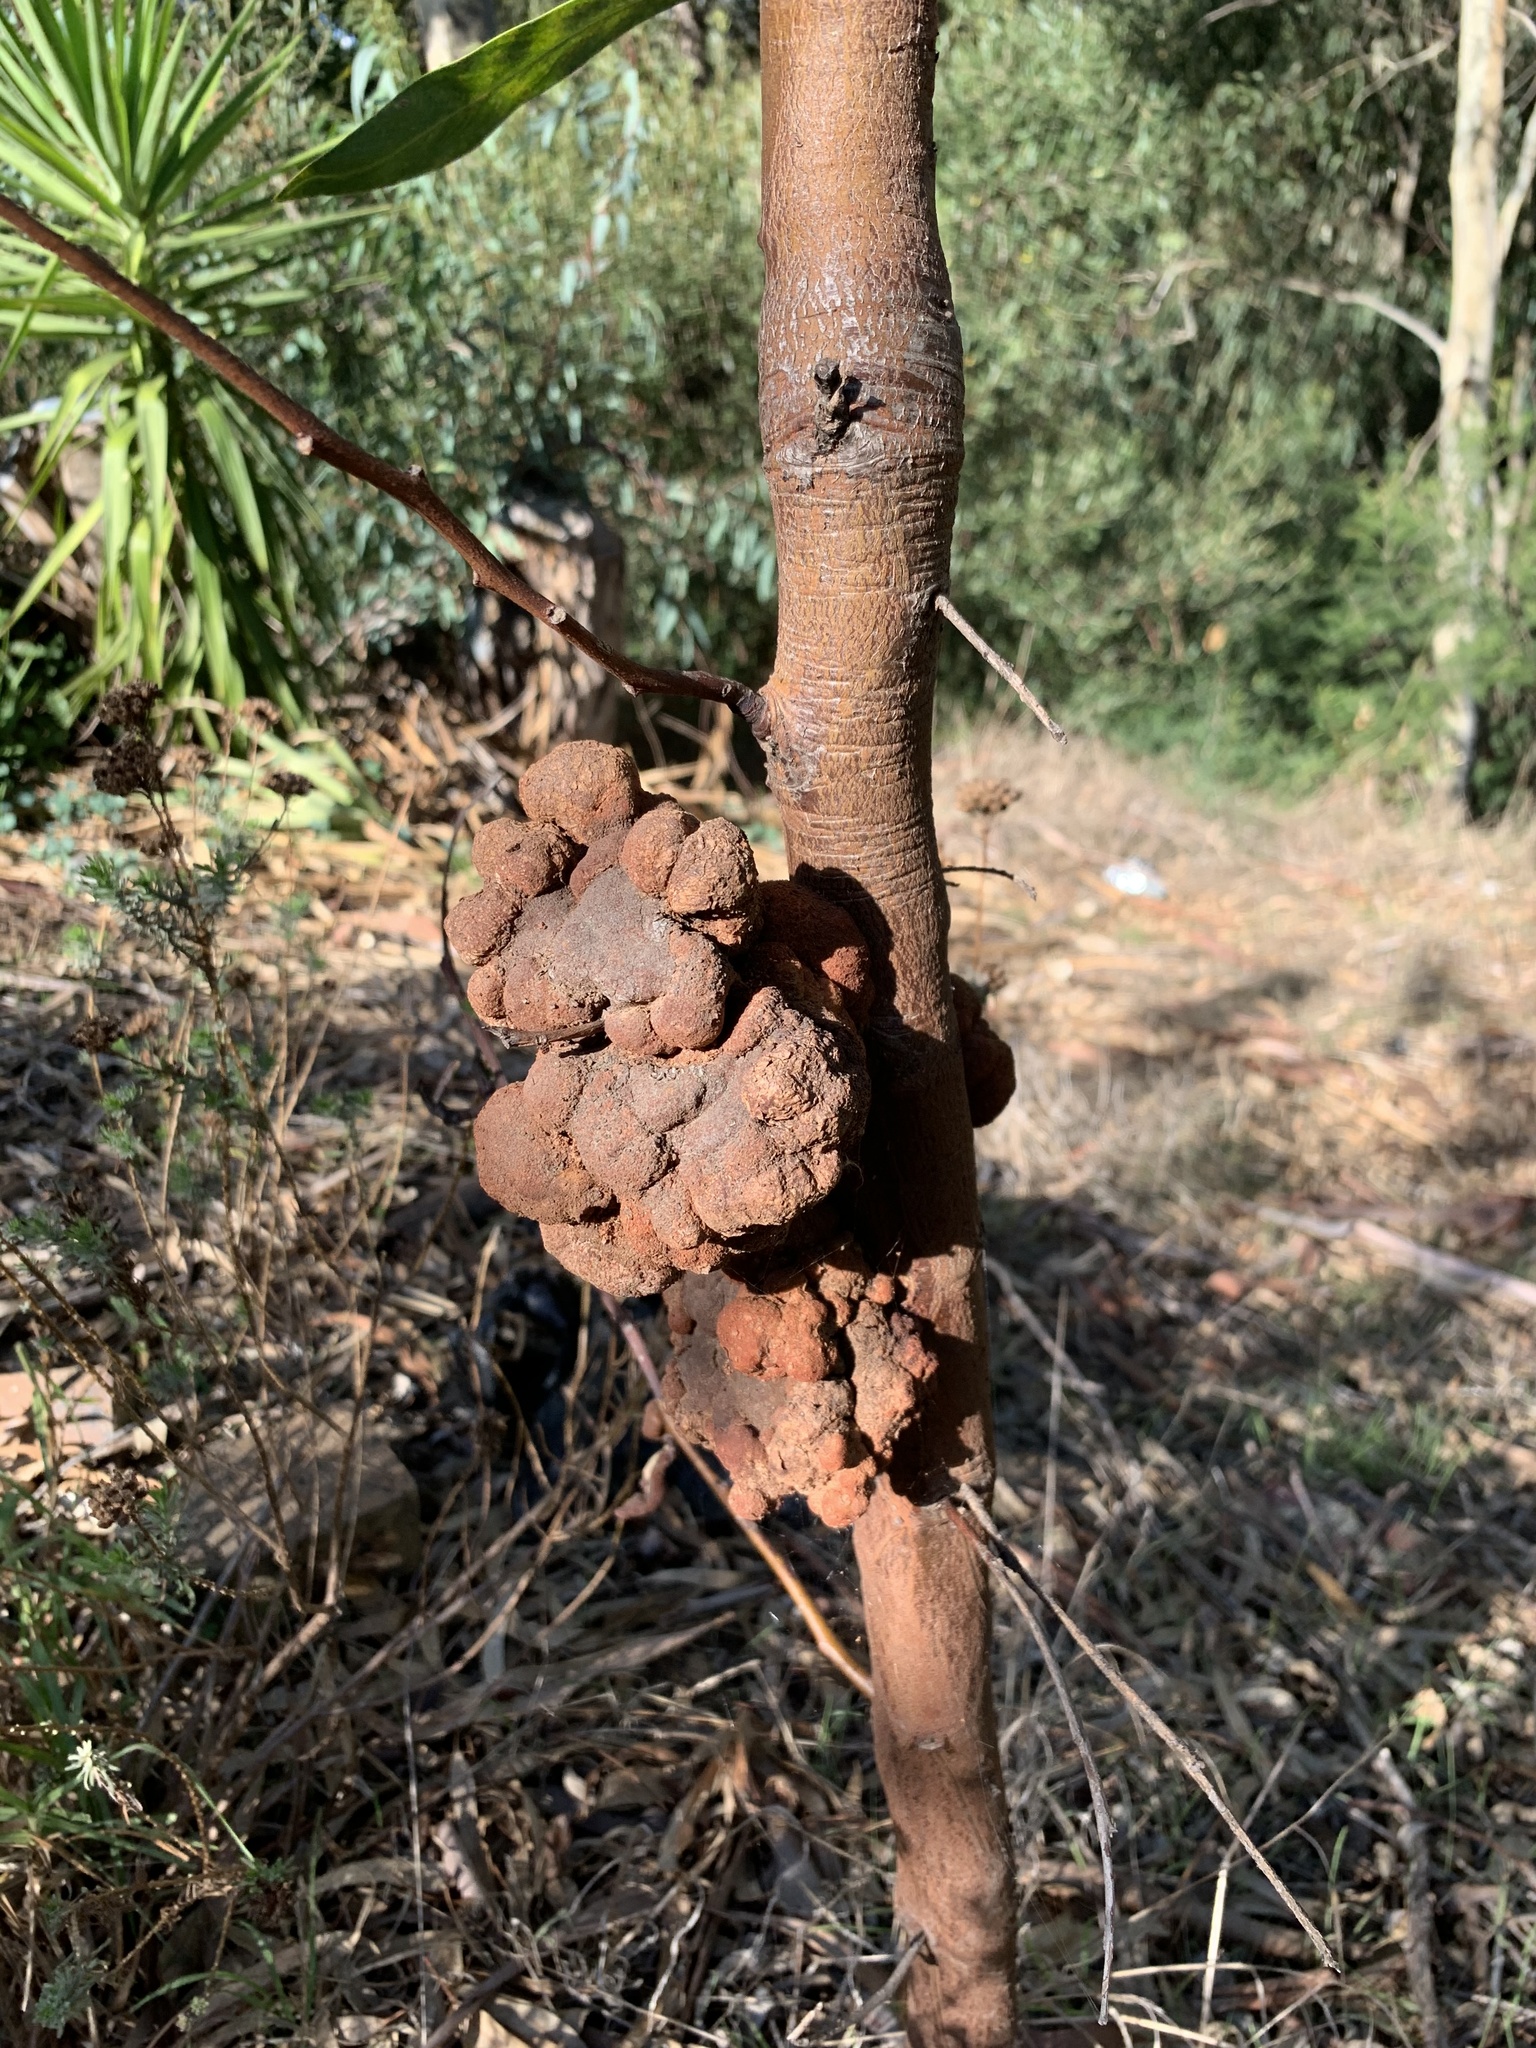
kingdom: Fungi
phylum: Basidiomycota
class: Pucciniomycetes
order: Pucciniales
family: Uromycladiaceae
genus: Uromycladium
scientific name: Uromycladium morrisii
